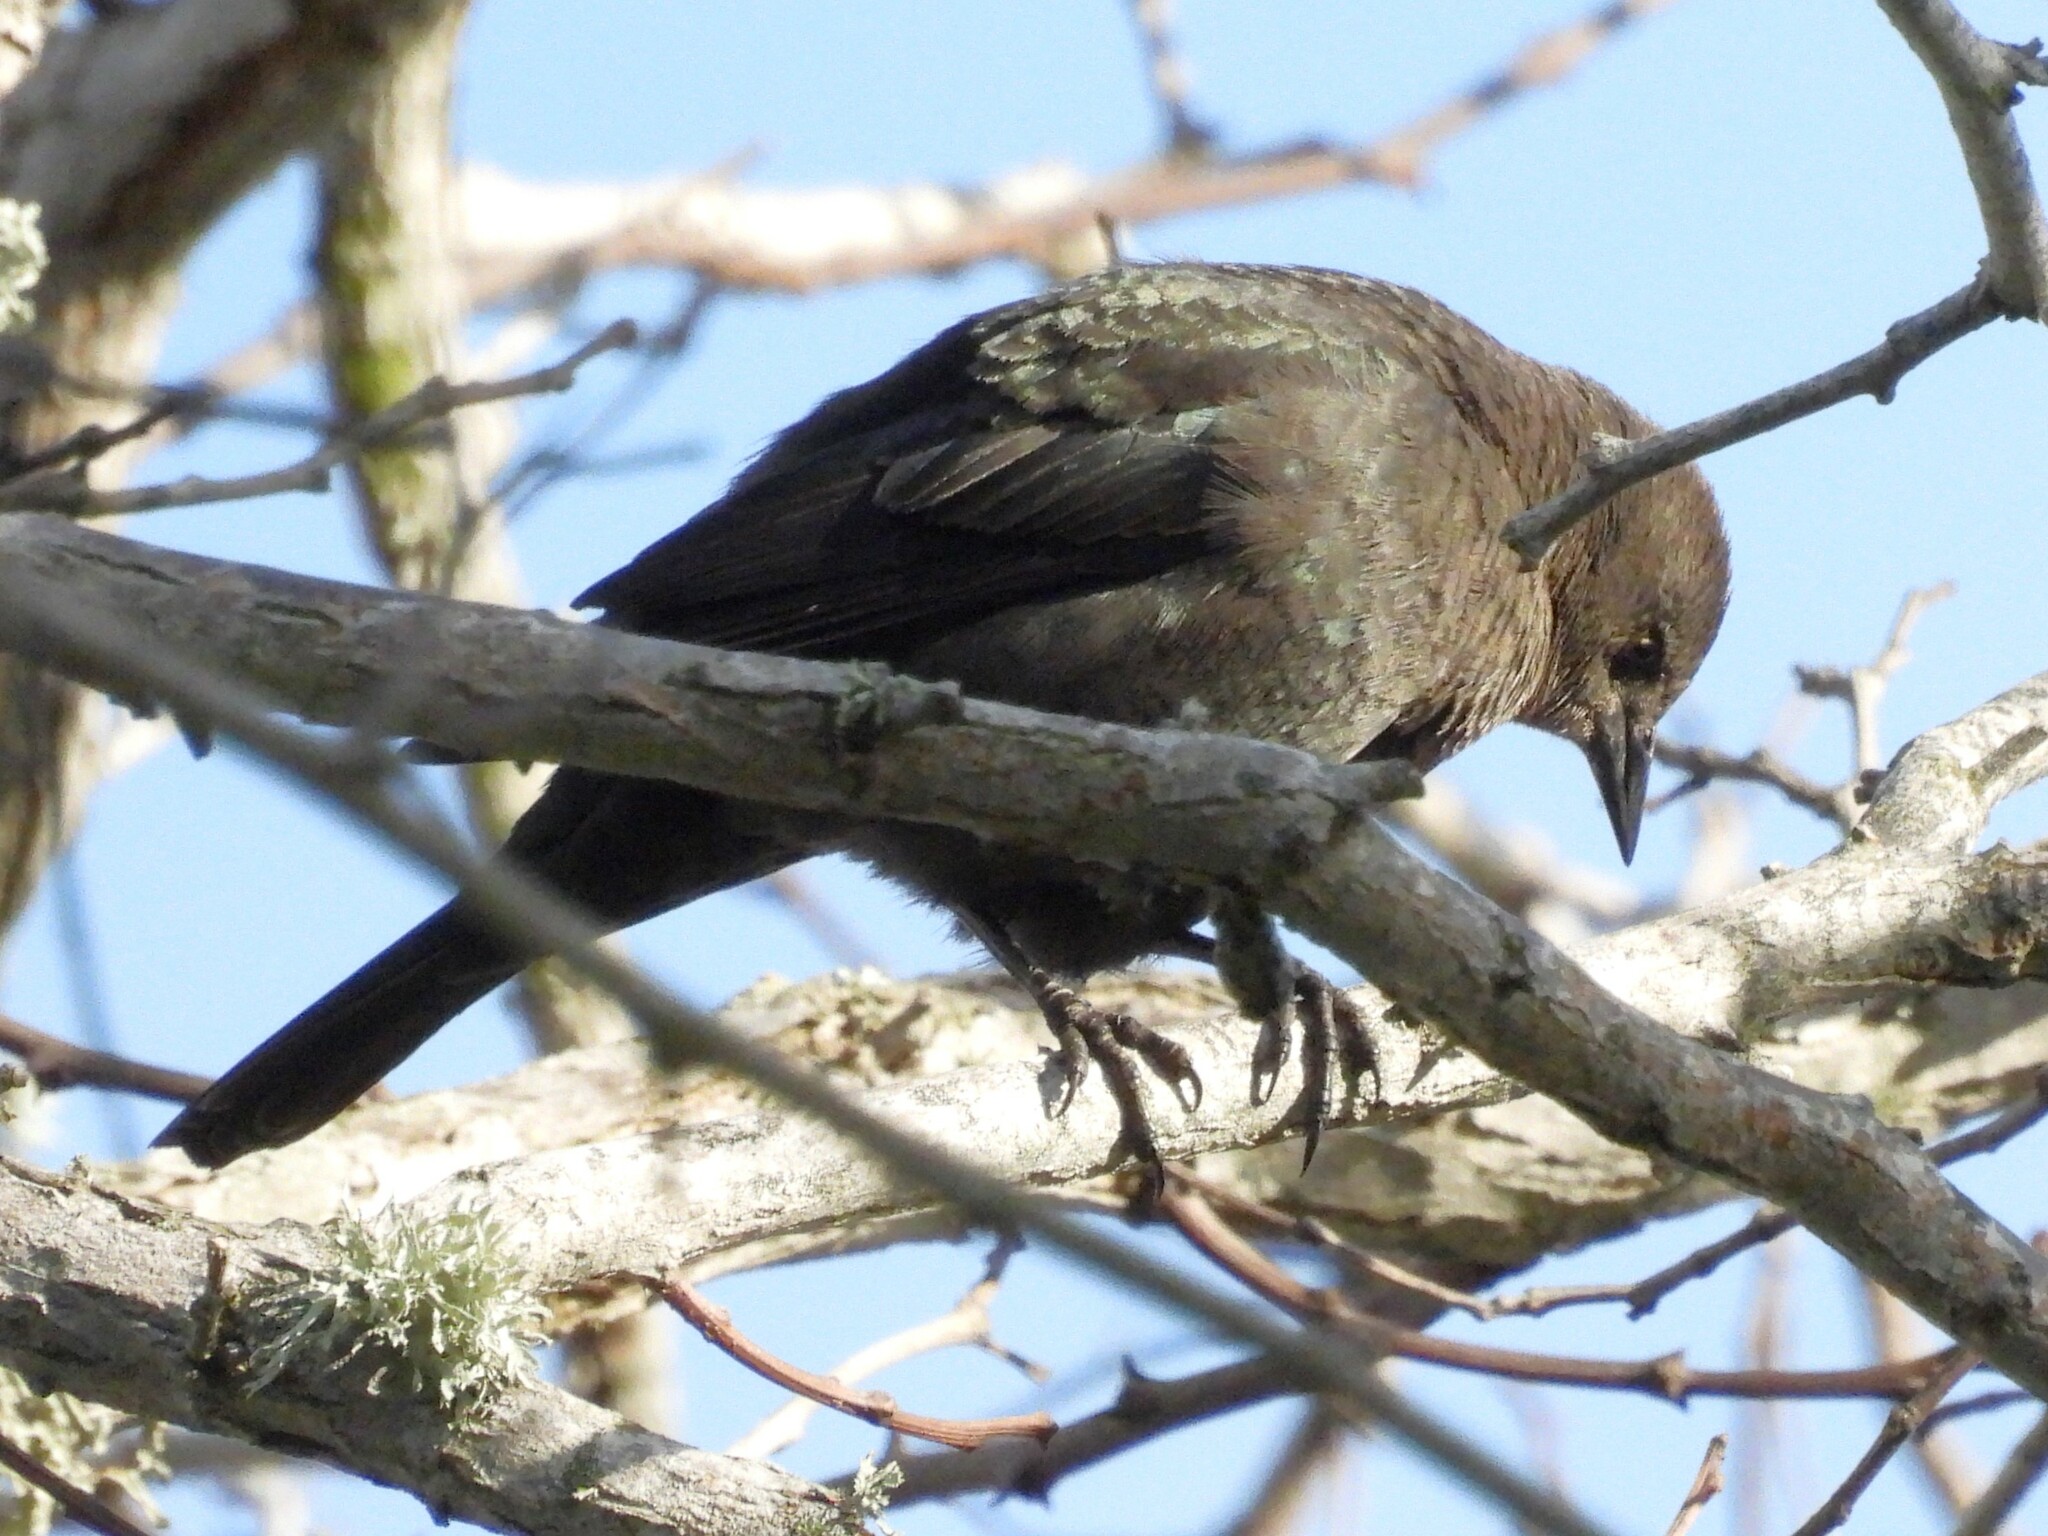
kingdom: Animalia
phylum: Chordata
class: Aves
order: Passeriformes
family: Icteridae
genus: Euphagus
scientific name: Euphagus cyanocephalus
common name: Brewer's blackbird
